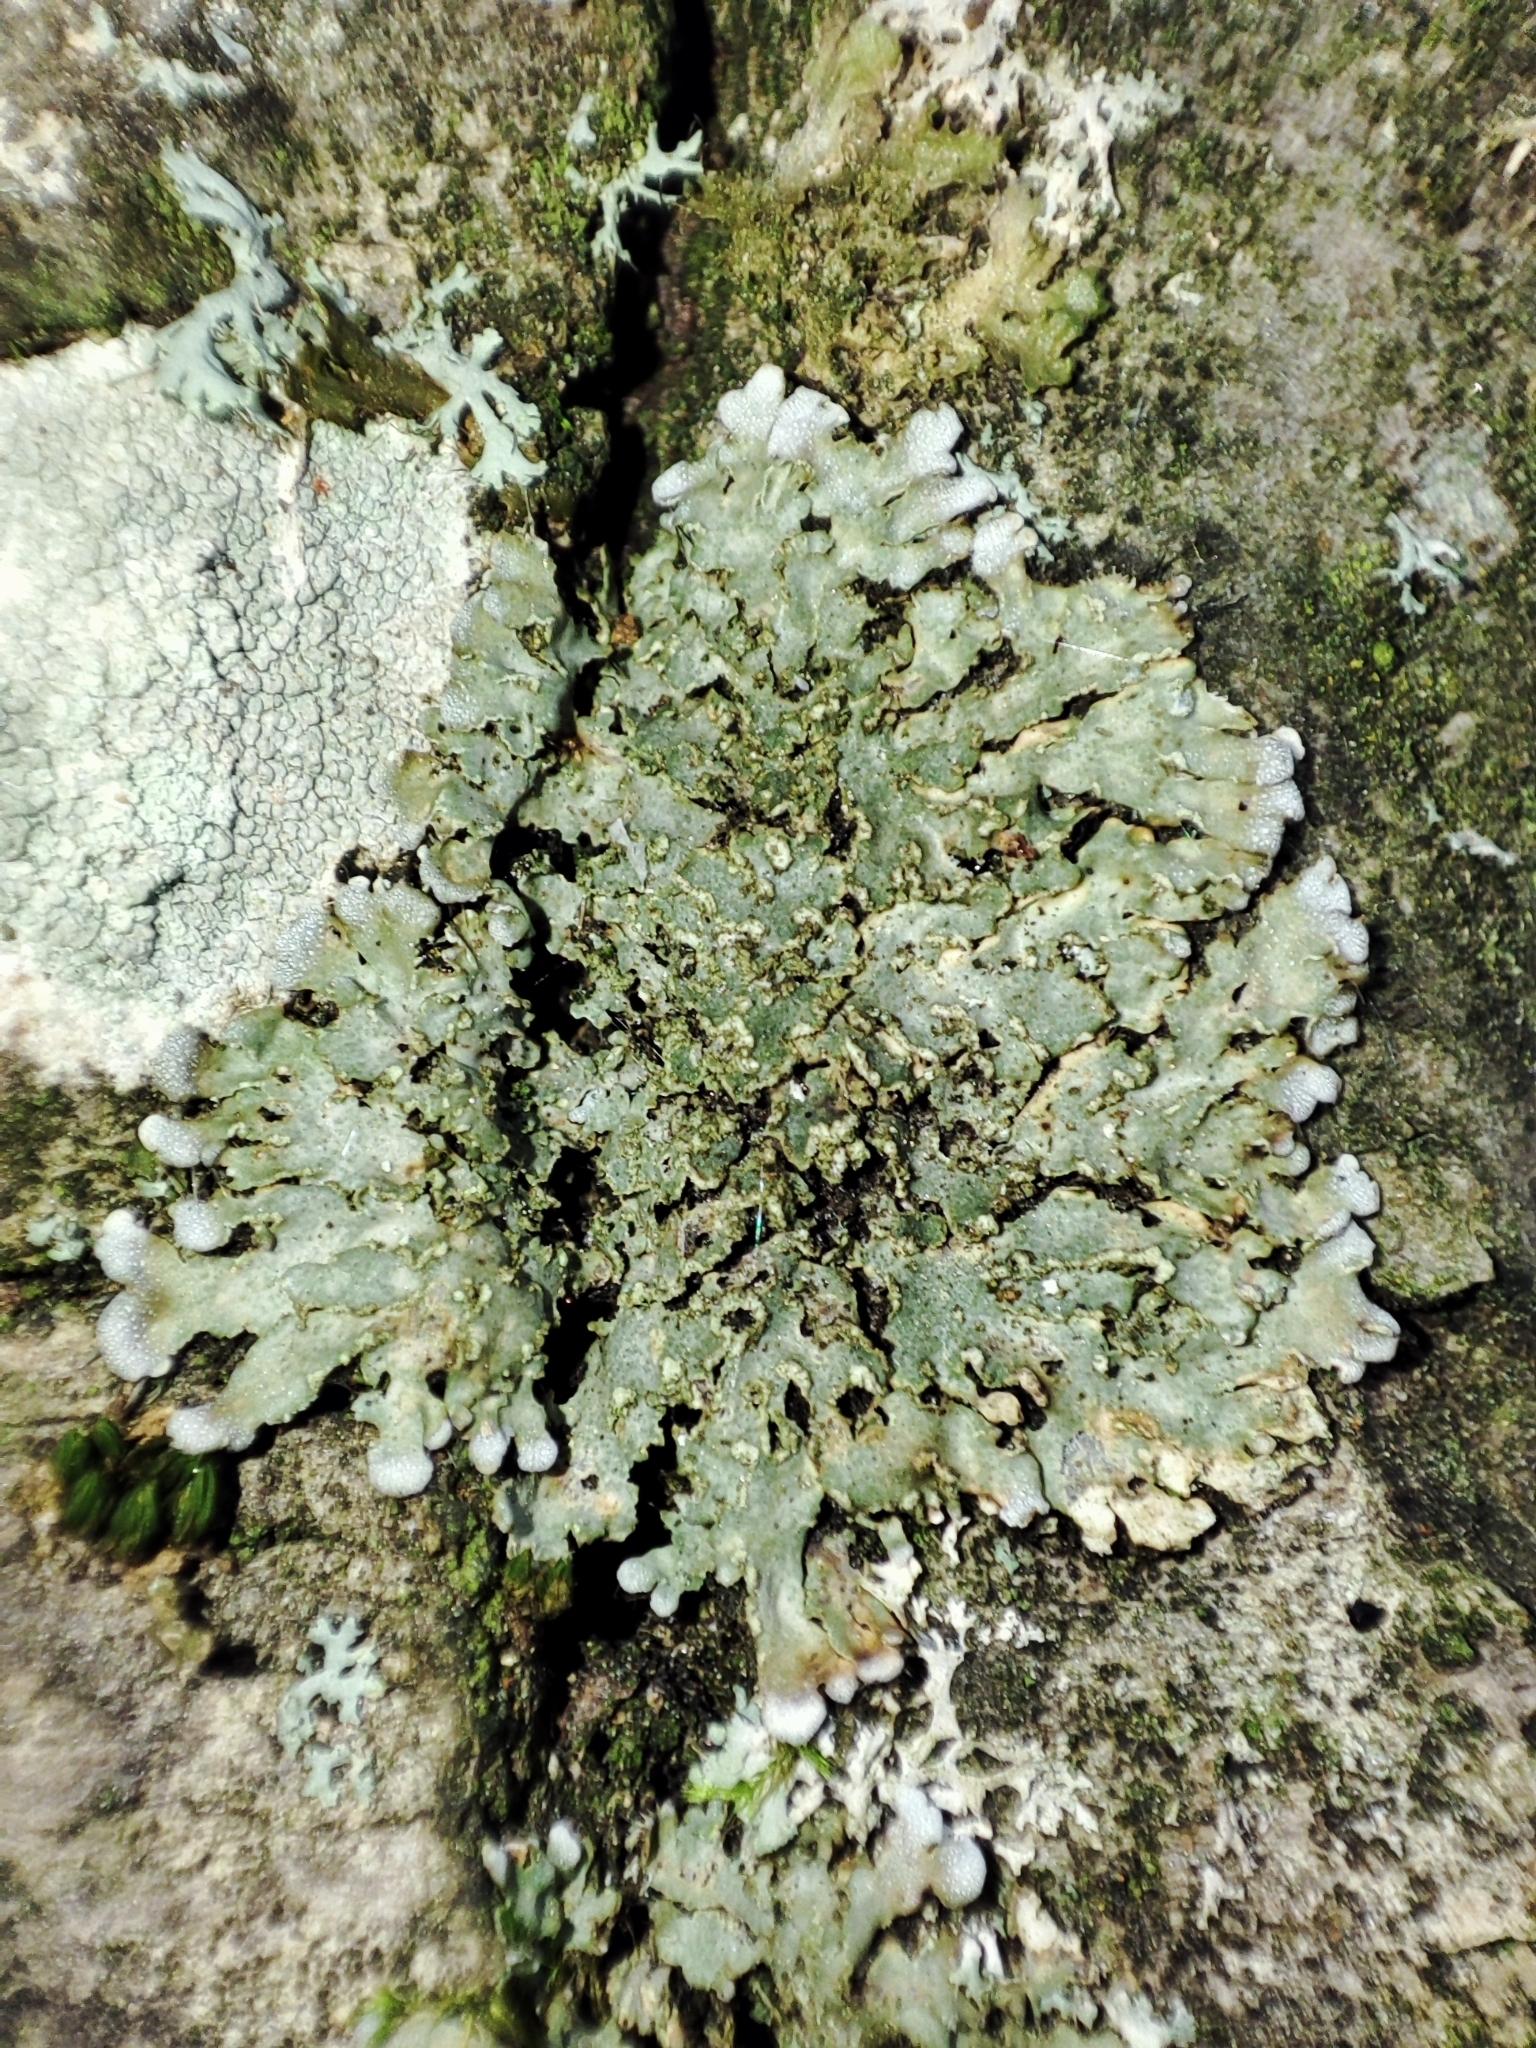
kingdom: Fungi
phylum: Ascomycota
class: Lecanoromycetes
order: Caliciales
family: Physciaceae
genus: Physconia
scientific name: Physconia enteroxantha
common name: Yellow-edged frost lichen
